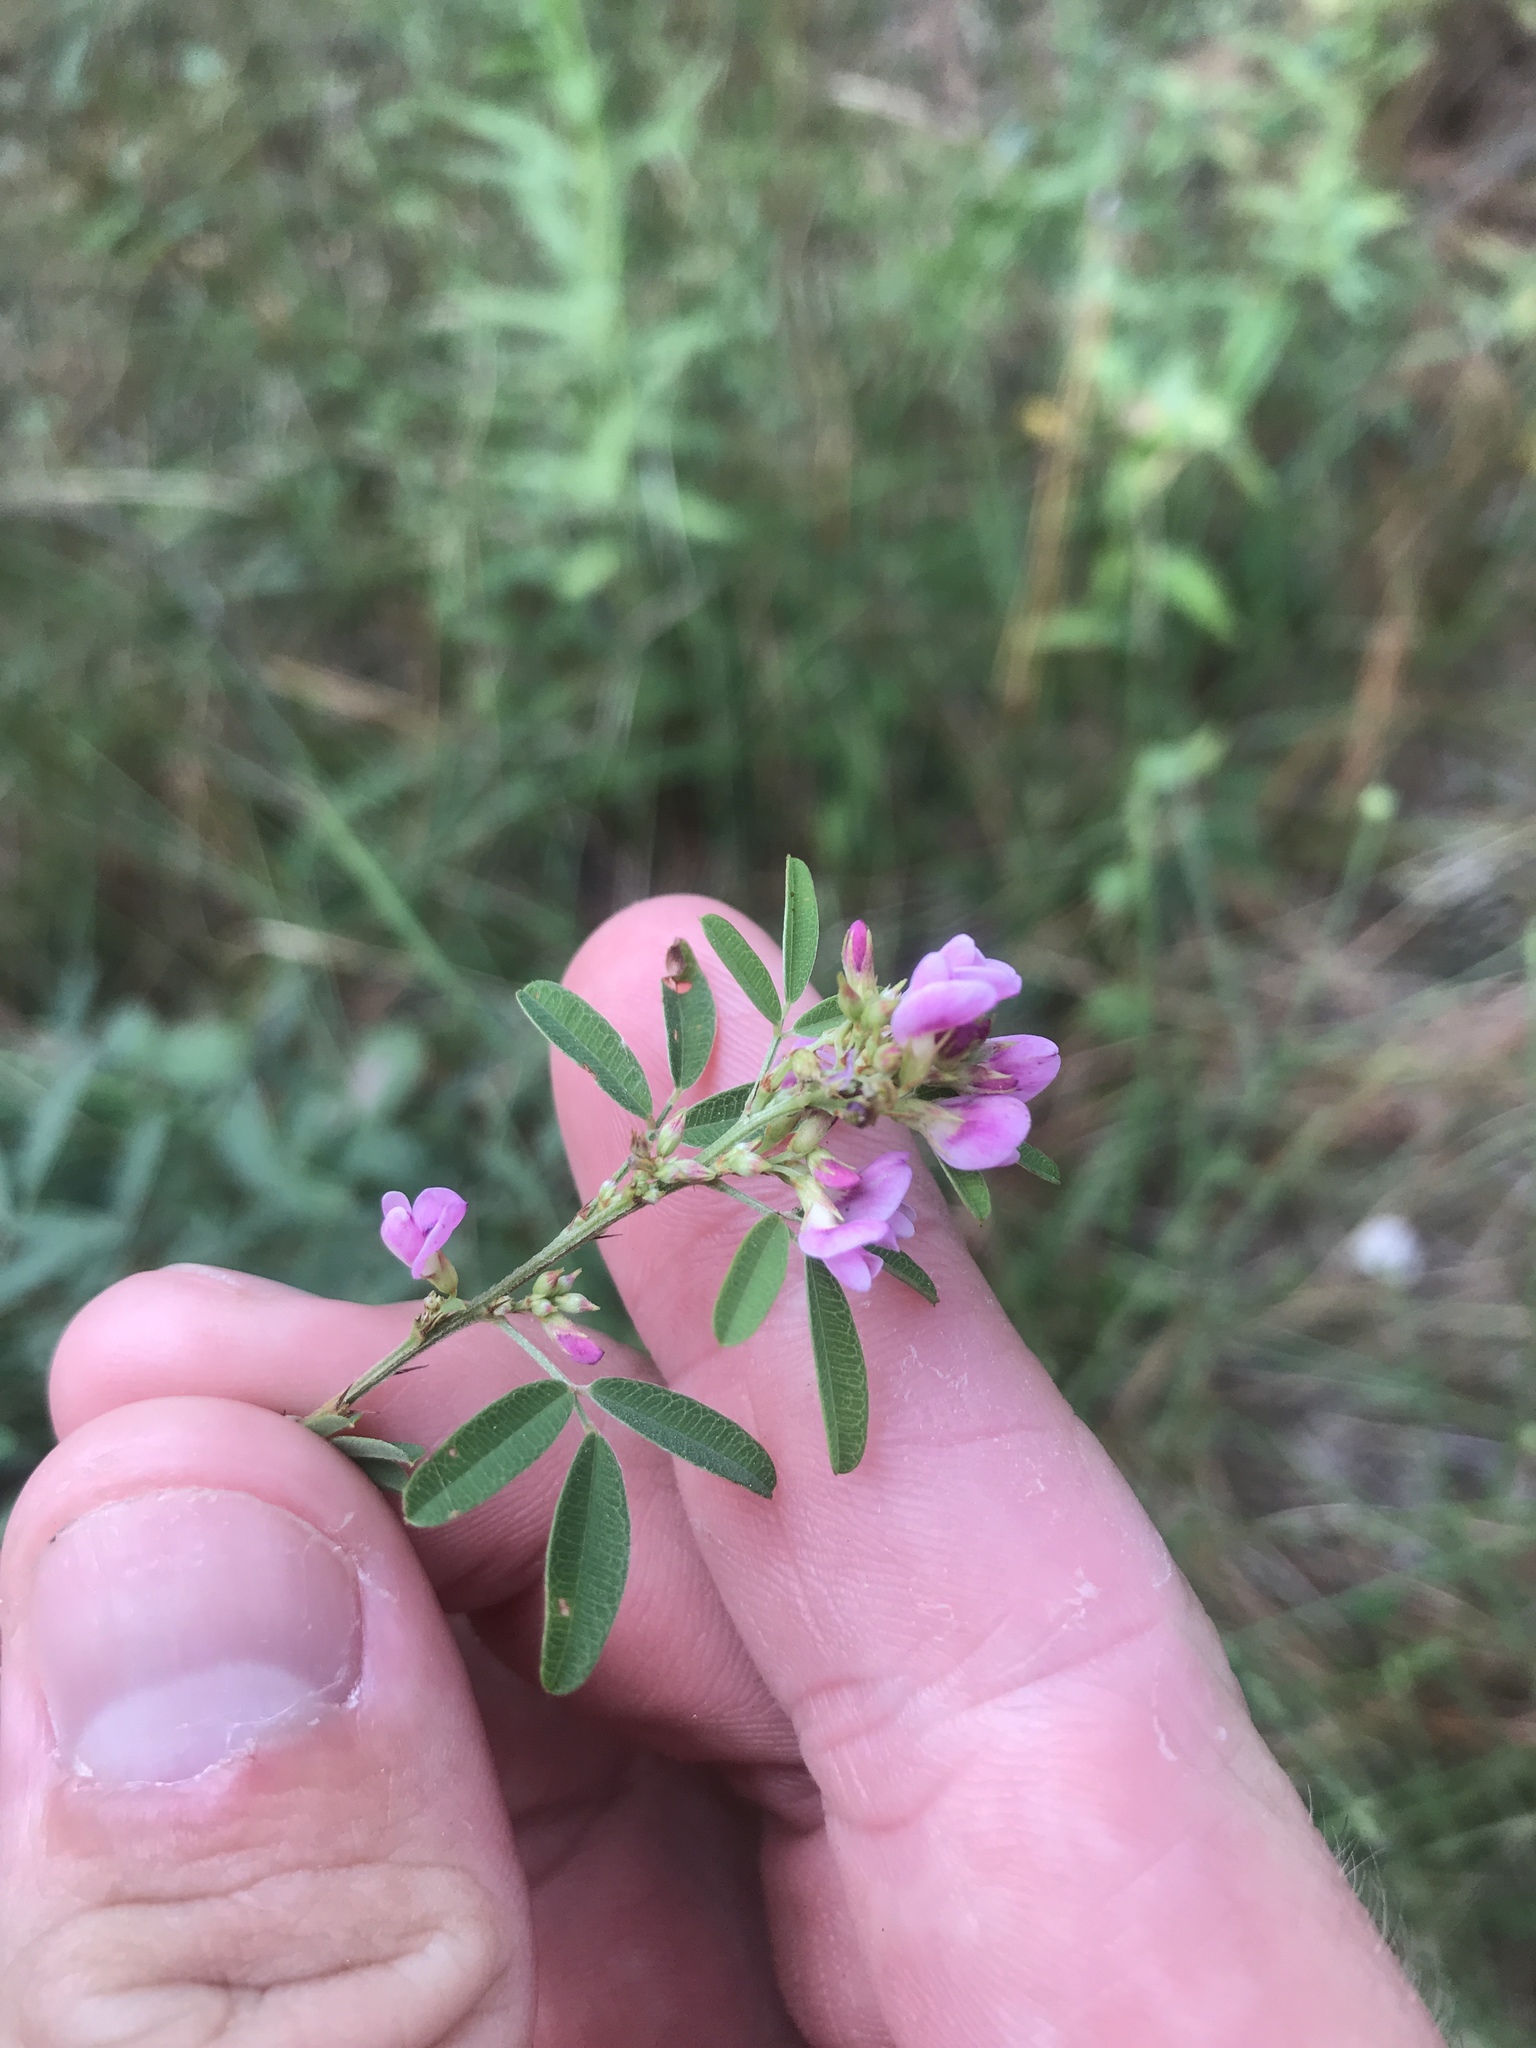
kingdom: Plantae
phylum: Tracheophyta
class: Magnoliopsida
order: Fabales
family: Fabaceae
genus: Lespedeza
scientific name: Lespedeza virginica
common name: Slender bush-clover
